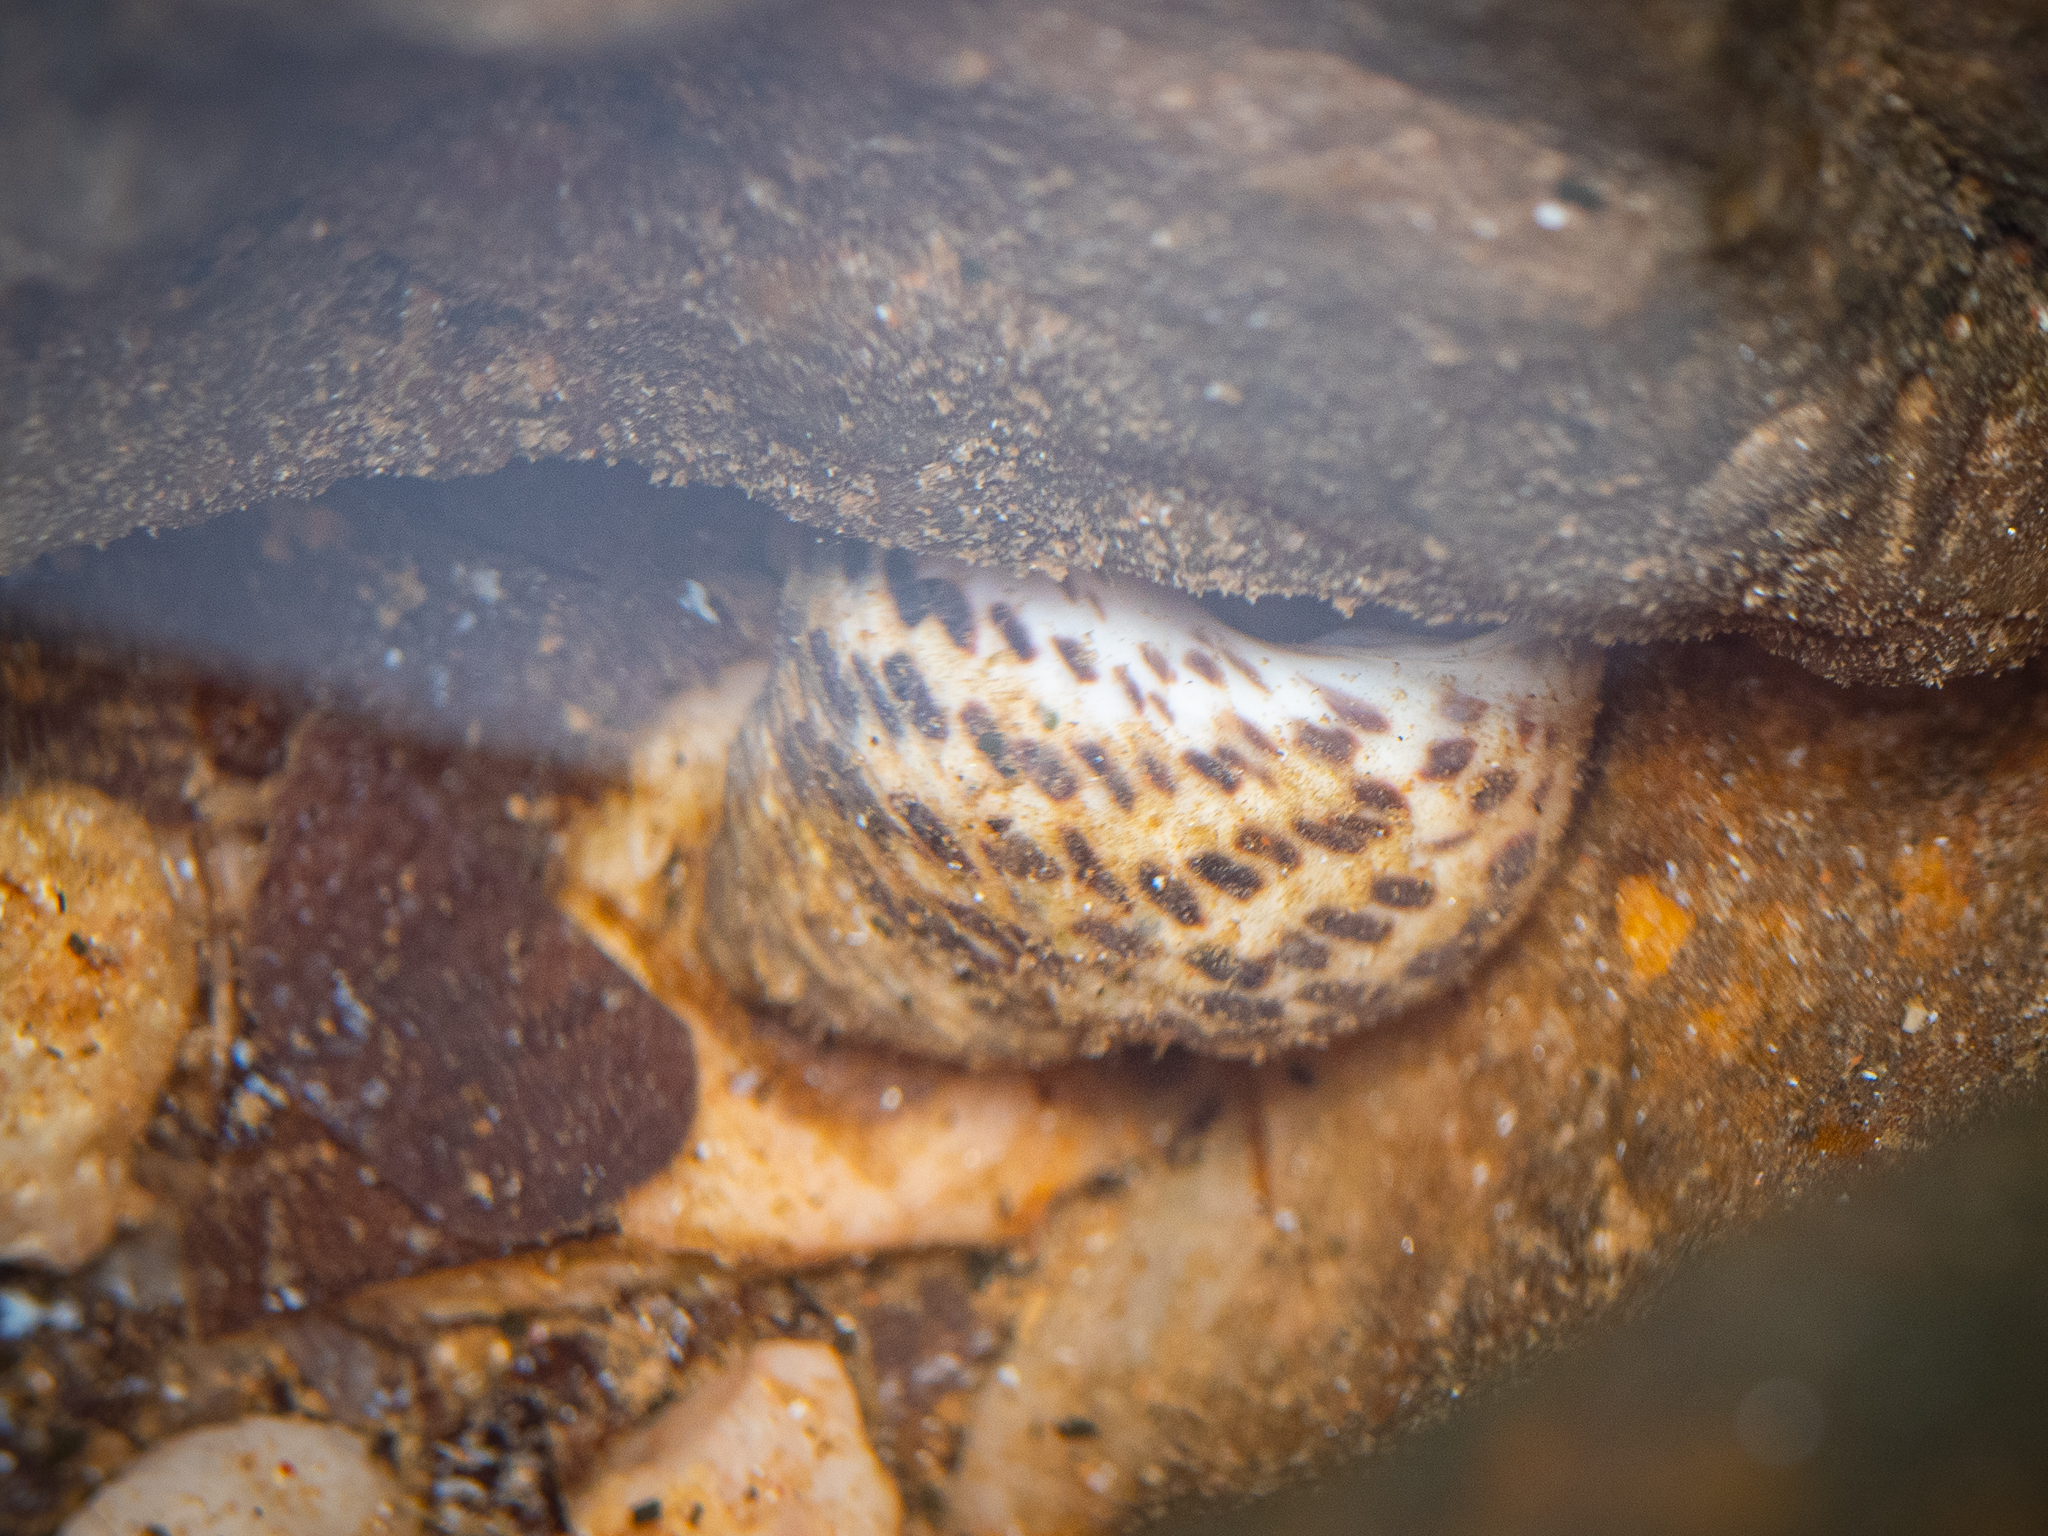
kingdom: Animalia
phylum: Mollusca
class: Gastropoda
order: Trochida
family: Trochidae
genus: Phorcus
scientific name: Phorcus turbinatus
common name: Turbinate monodont
